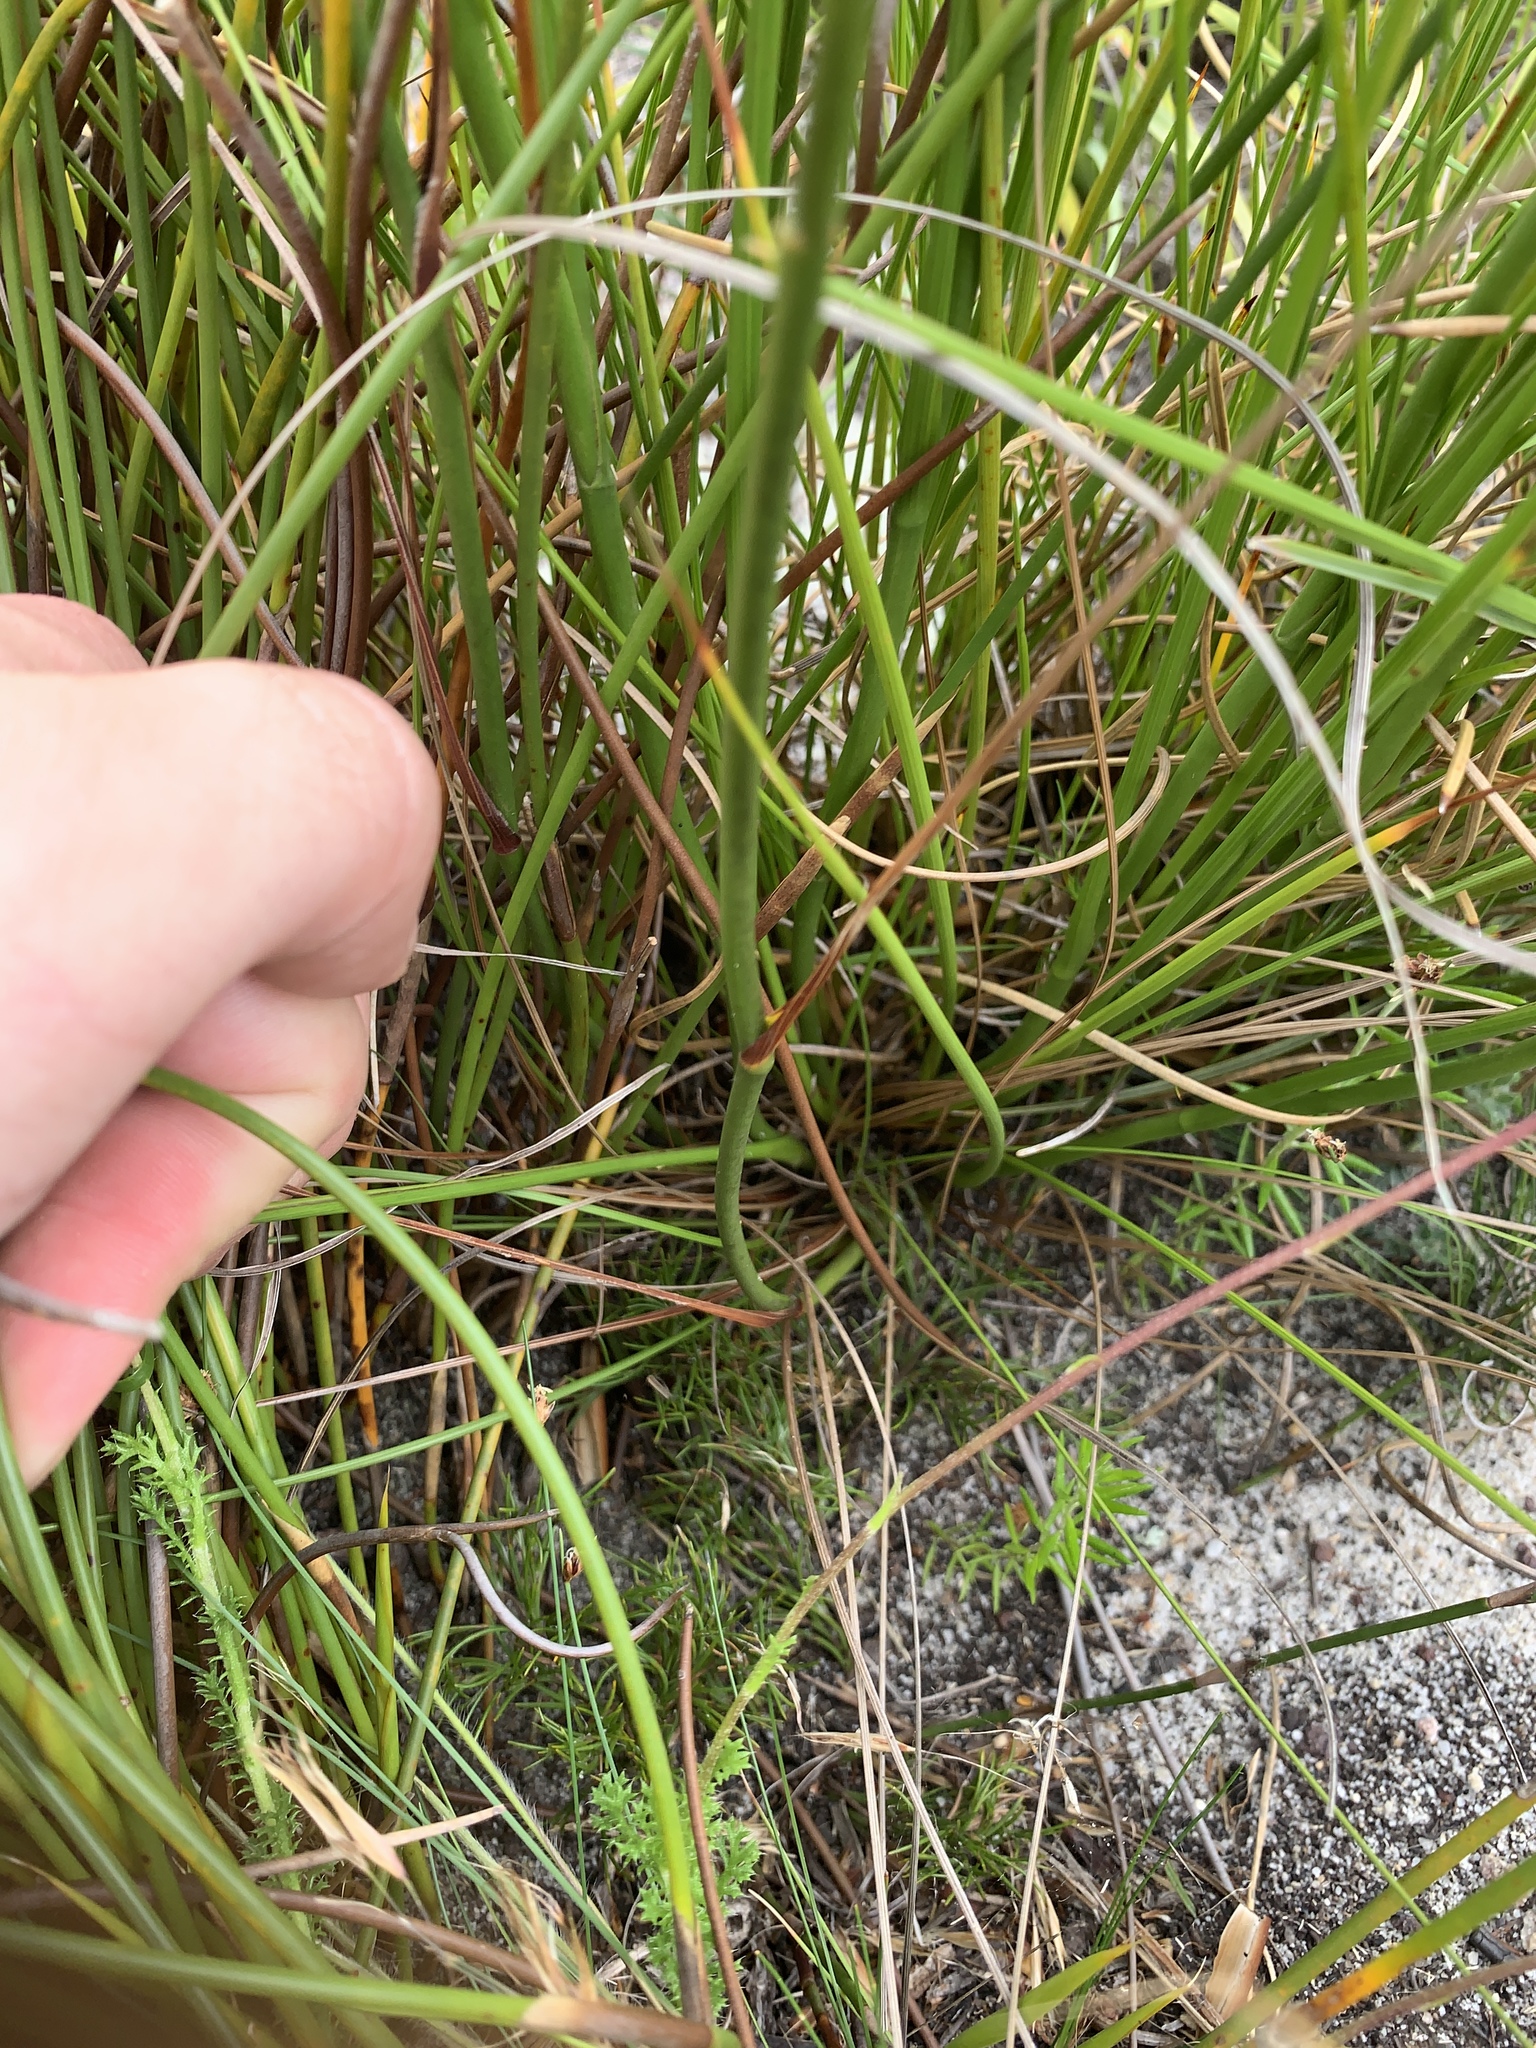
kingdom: Plantae
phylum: Tracheophyta
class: Liliopsida
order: Asparagales
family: Iridaceae
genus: Tritoniopsis
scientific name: Tritoniopsis triticea
